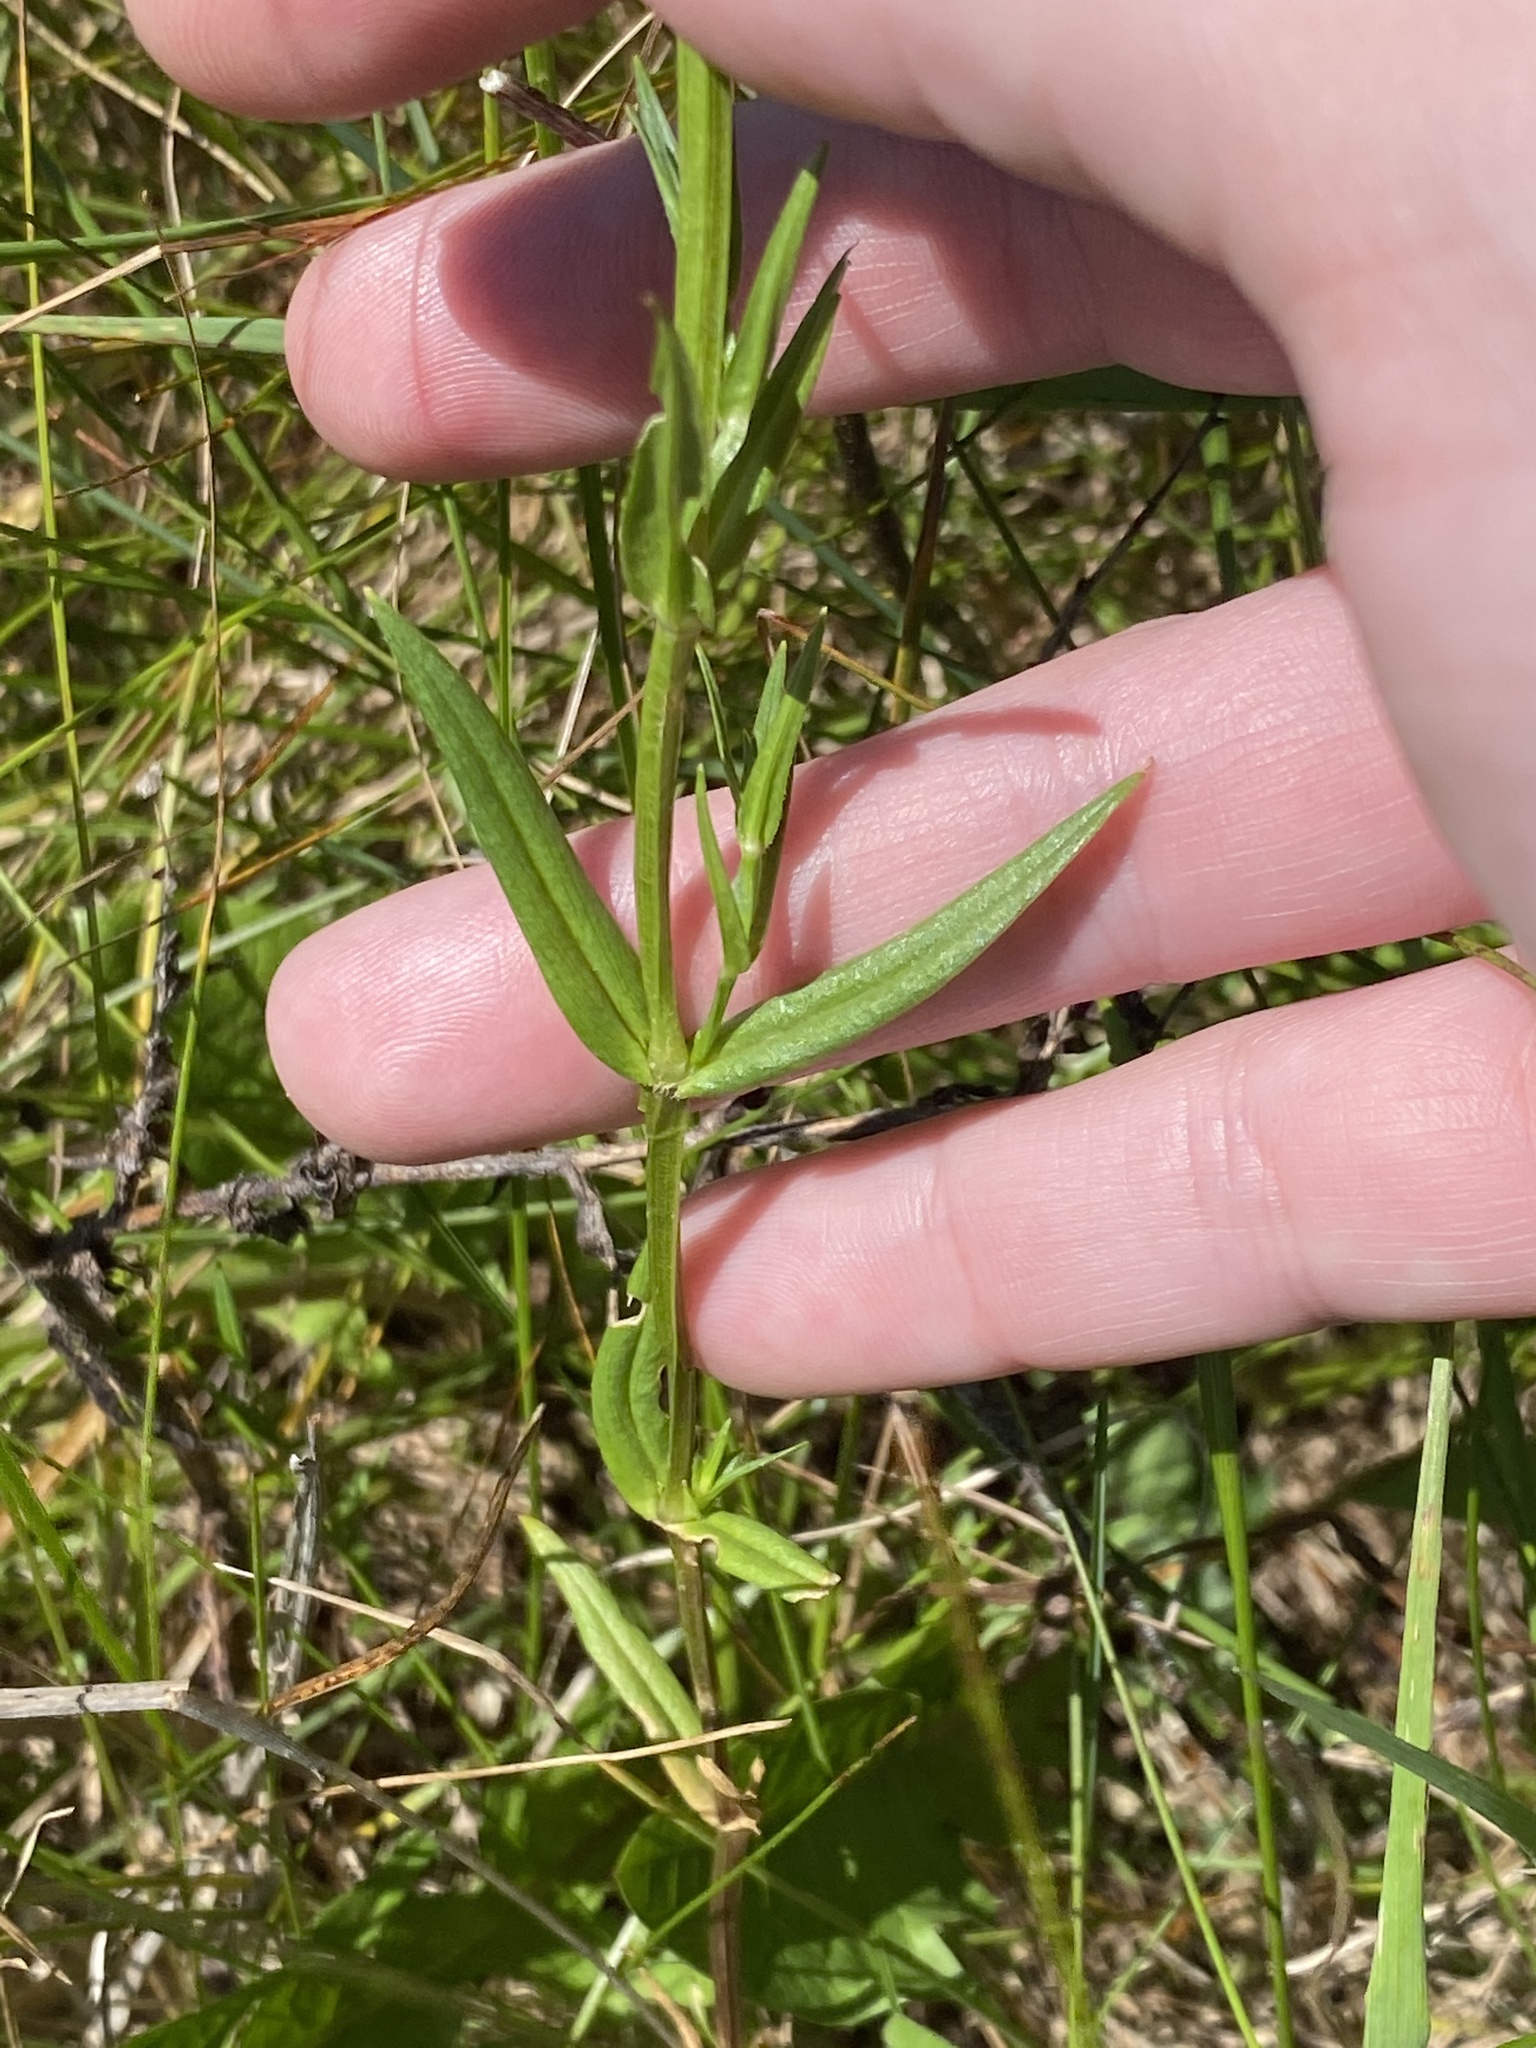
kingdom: Plantae
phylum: Tracheophyta
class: Magnoliopsida
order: Caryophyllales
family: Caryophyllaceae
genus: Stellaria
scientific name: Stellaria graminea
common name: Grass-like starwort
